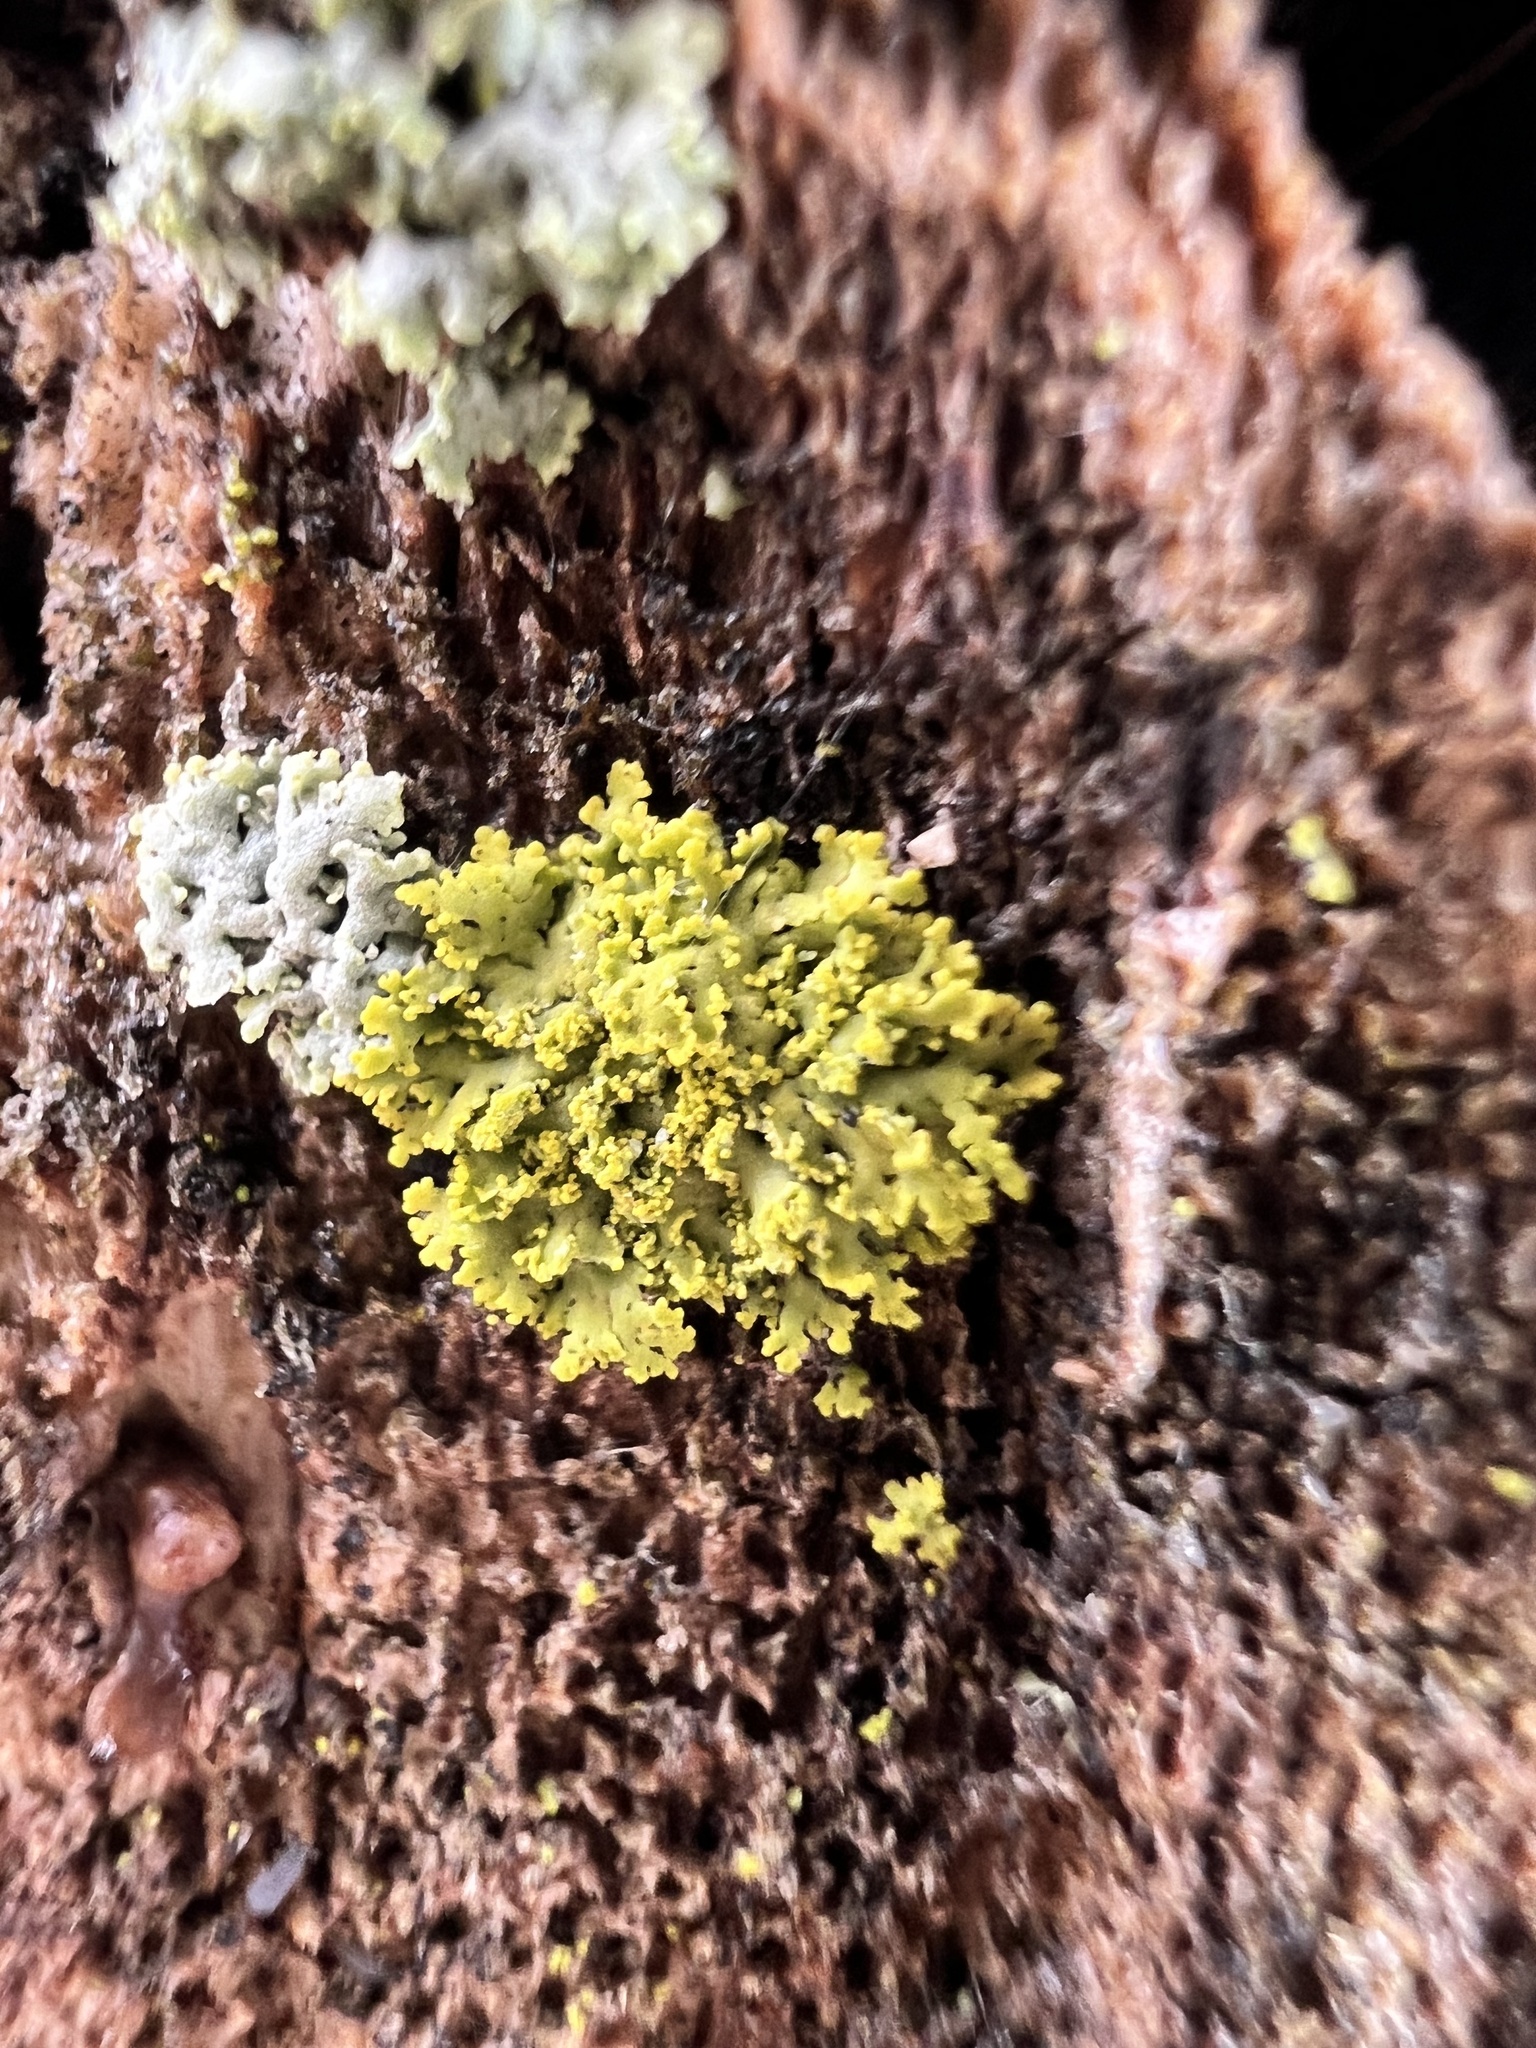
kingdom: Fungi
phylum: Ascomycota
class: Candelariomycetes
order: Candelariales
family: Candelariaceae
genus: Candelaria
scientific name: Candelaria concolor
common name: Candleflame lichen
